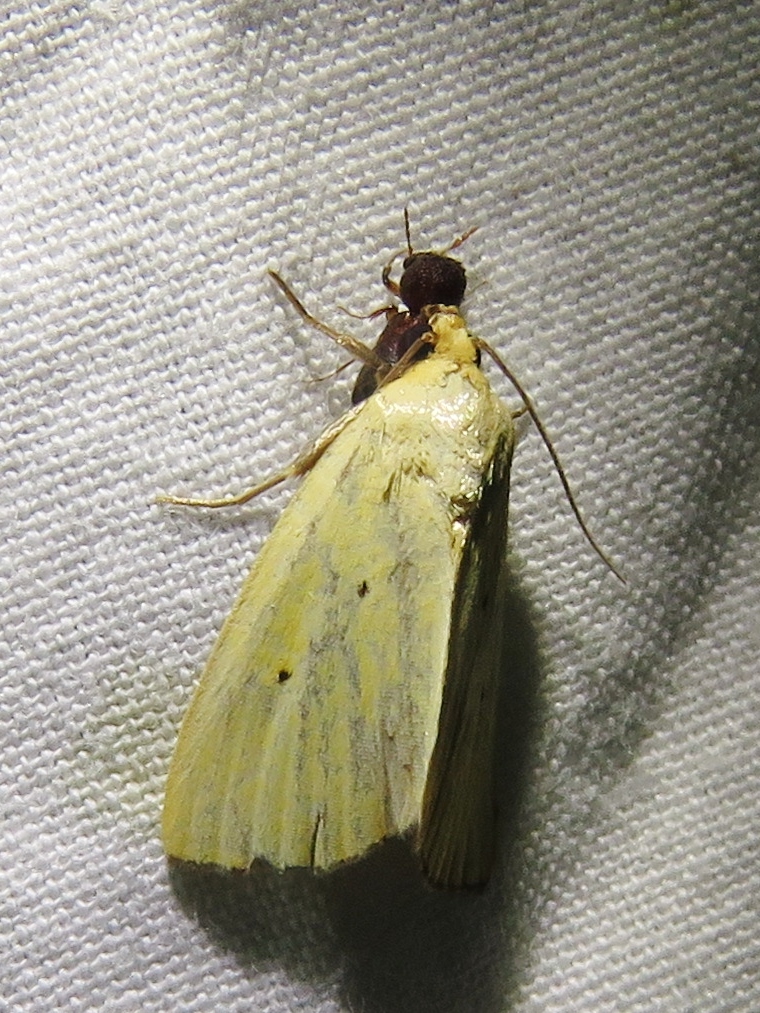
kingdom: Animalia
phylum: Arthropoda
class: Insecta
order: Lepidoptera
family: Noctuidae
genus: Marimatha
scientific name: Marimatha nigrofimbria
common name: Black-bordered lemon moth
